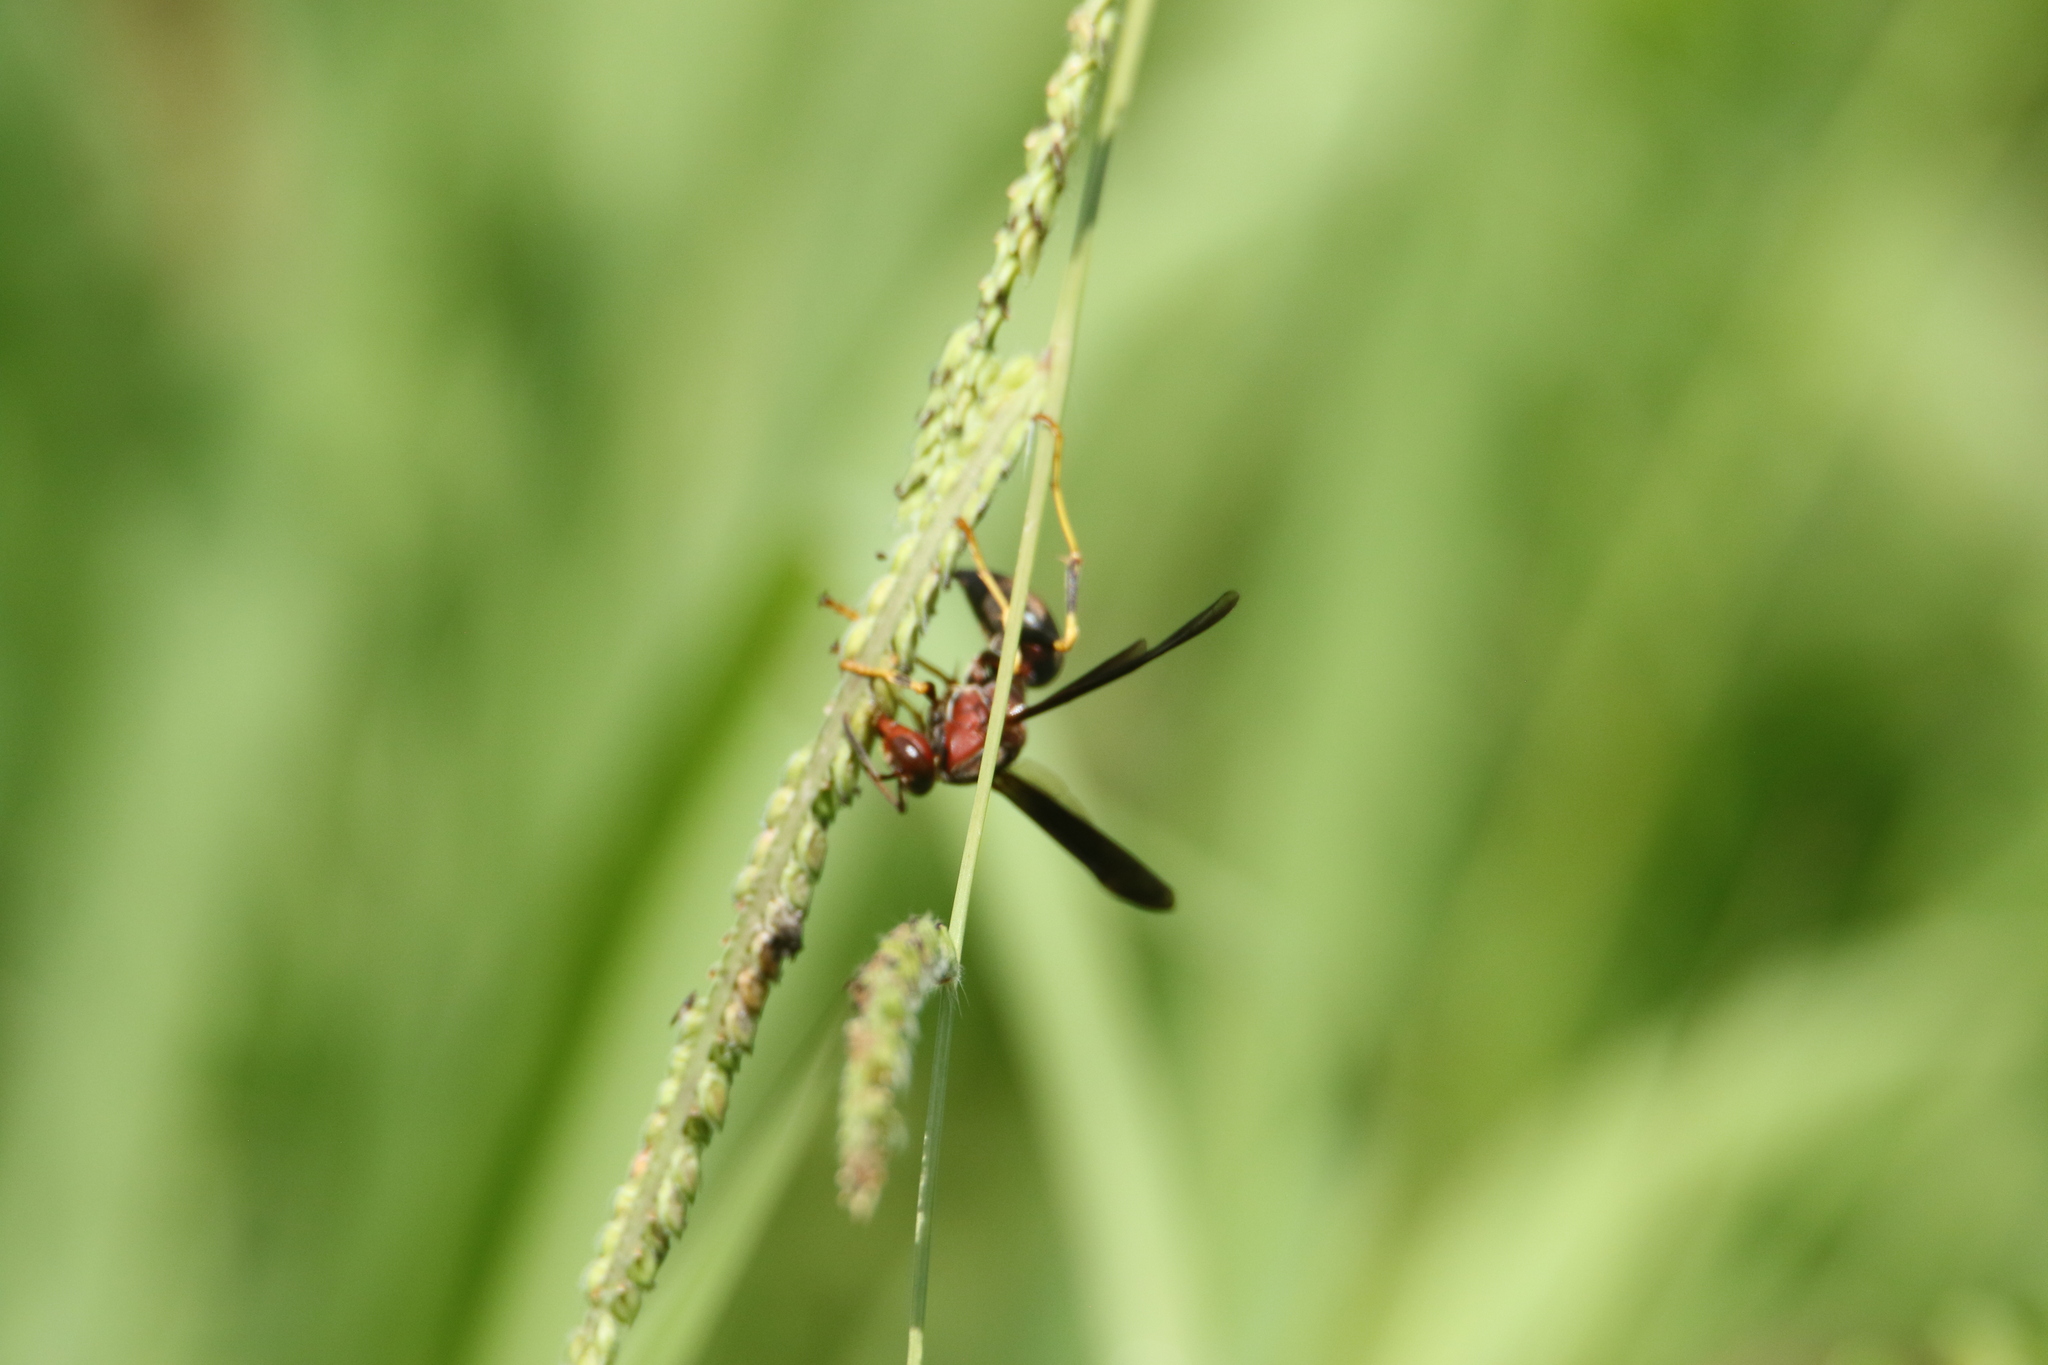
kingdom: Animalia
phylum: Arthropoda
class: Insecta
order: Hymenoptera
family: Eumenidae
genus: Polistes
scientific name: Polistes metricus
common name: Metric paper wasp
